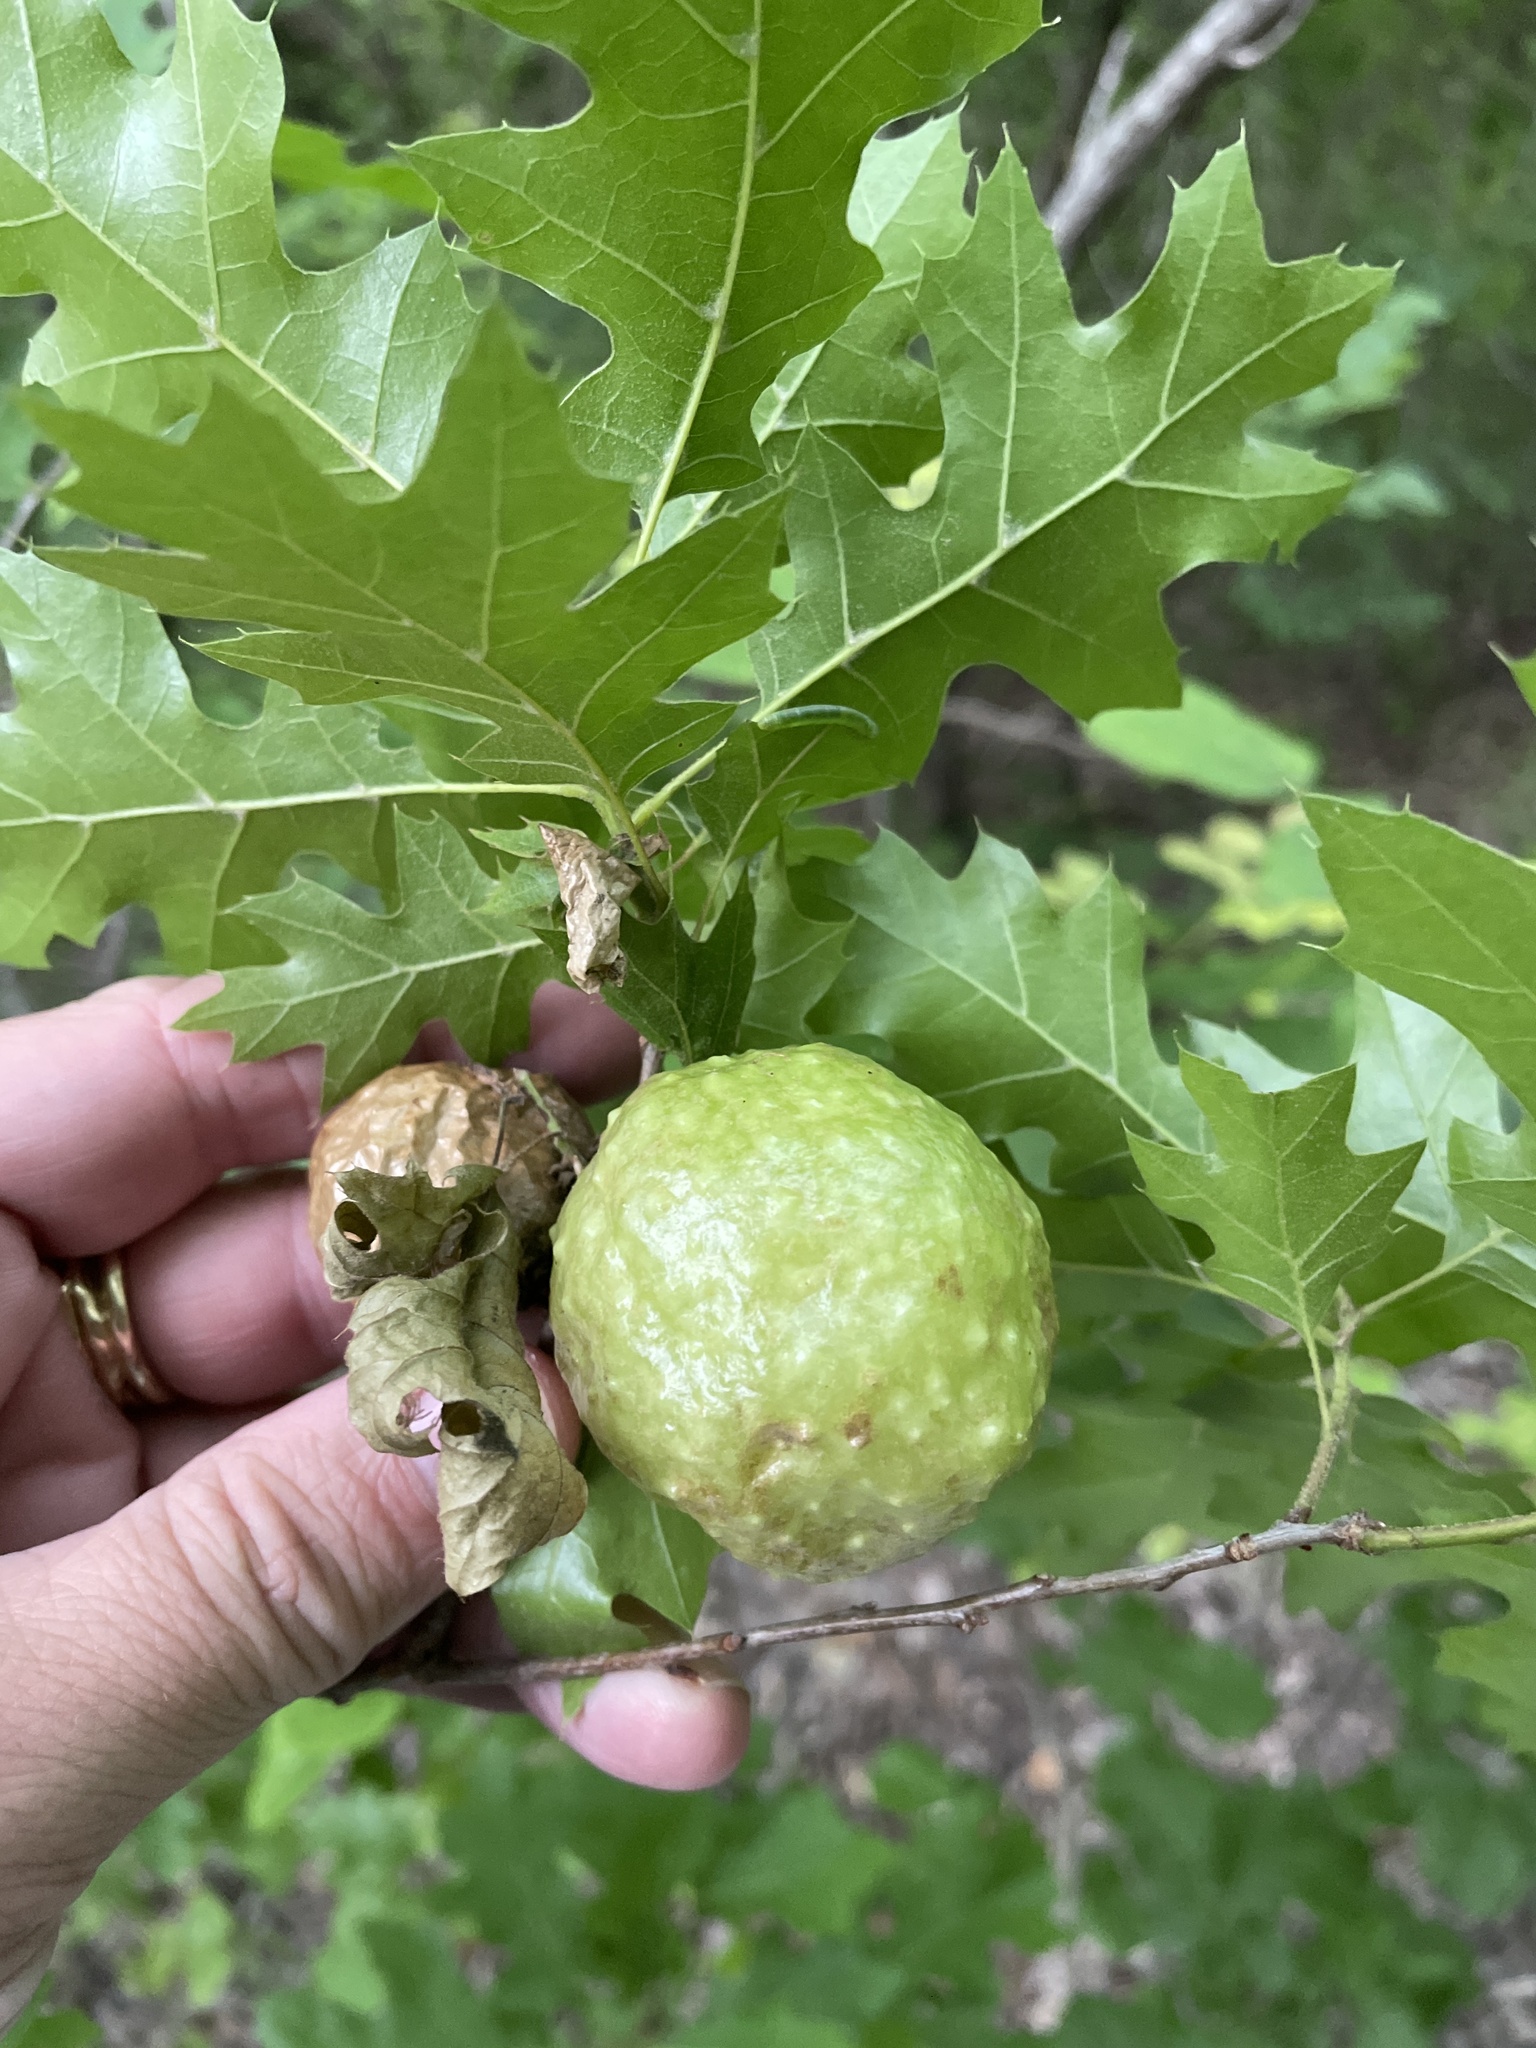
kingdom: Animalia
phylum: Arthropoda
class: Insecta
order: Hymenoptera
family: Cynipidae
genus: Amphibolips
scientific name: Amphibolips
